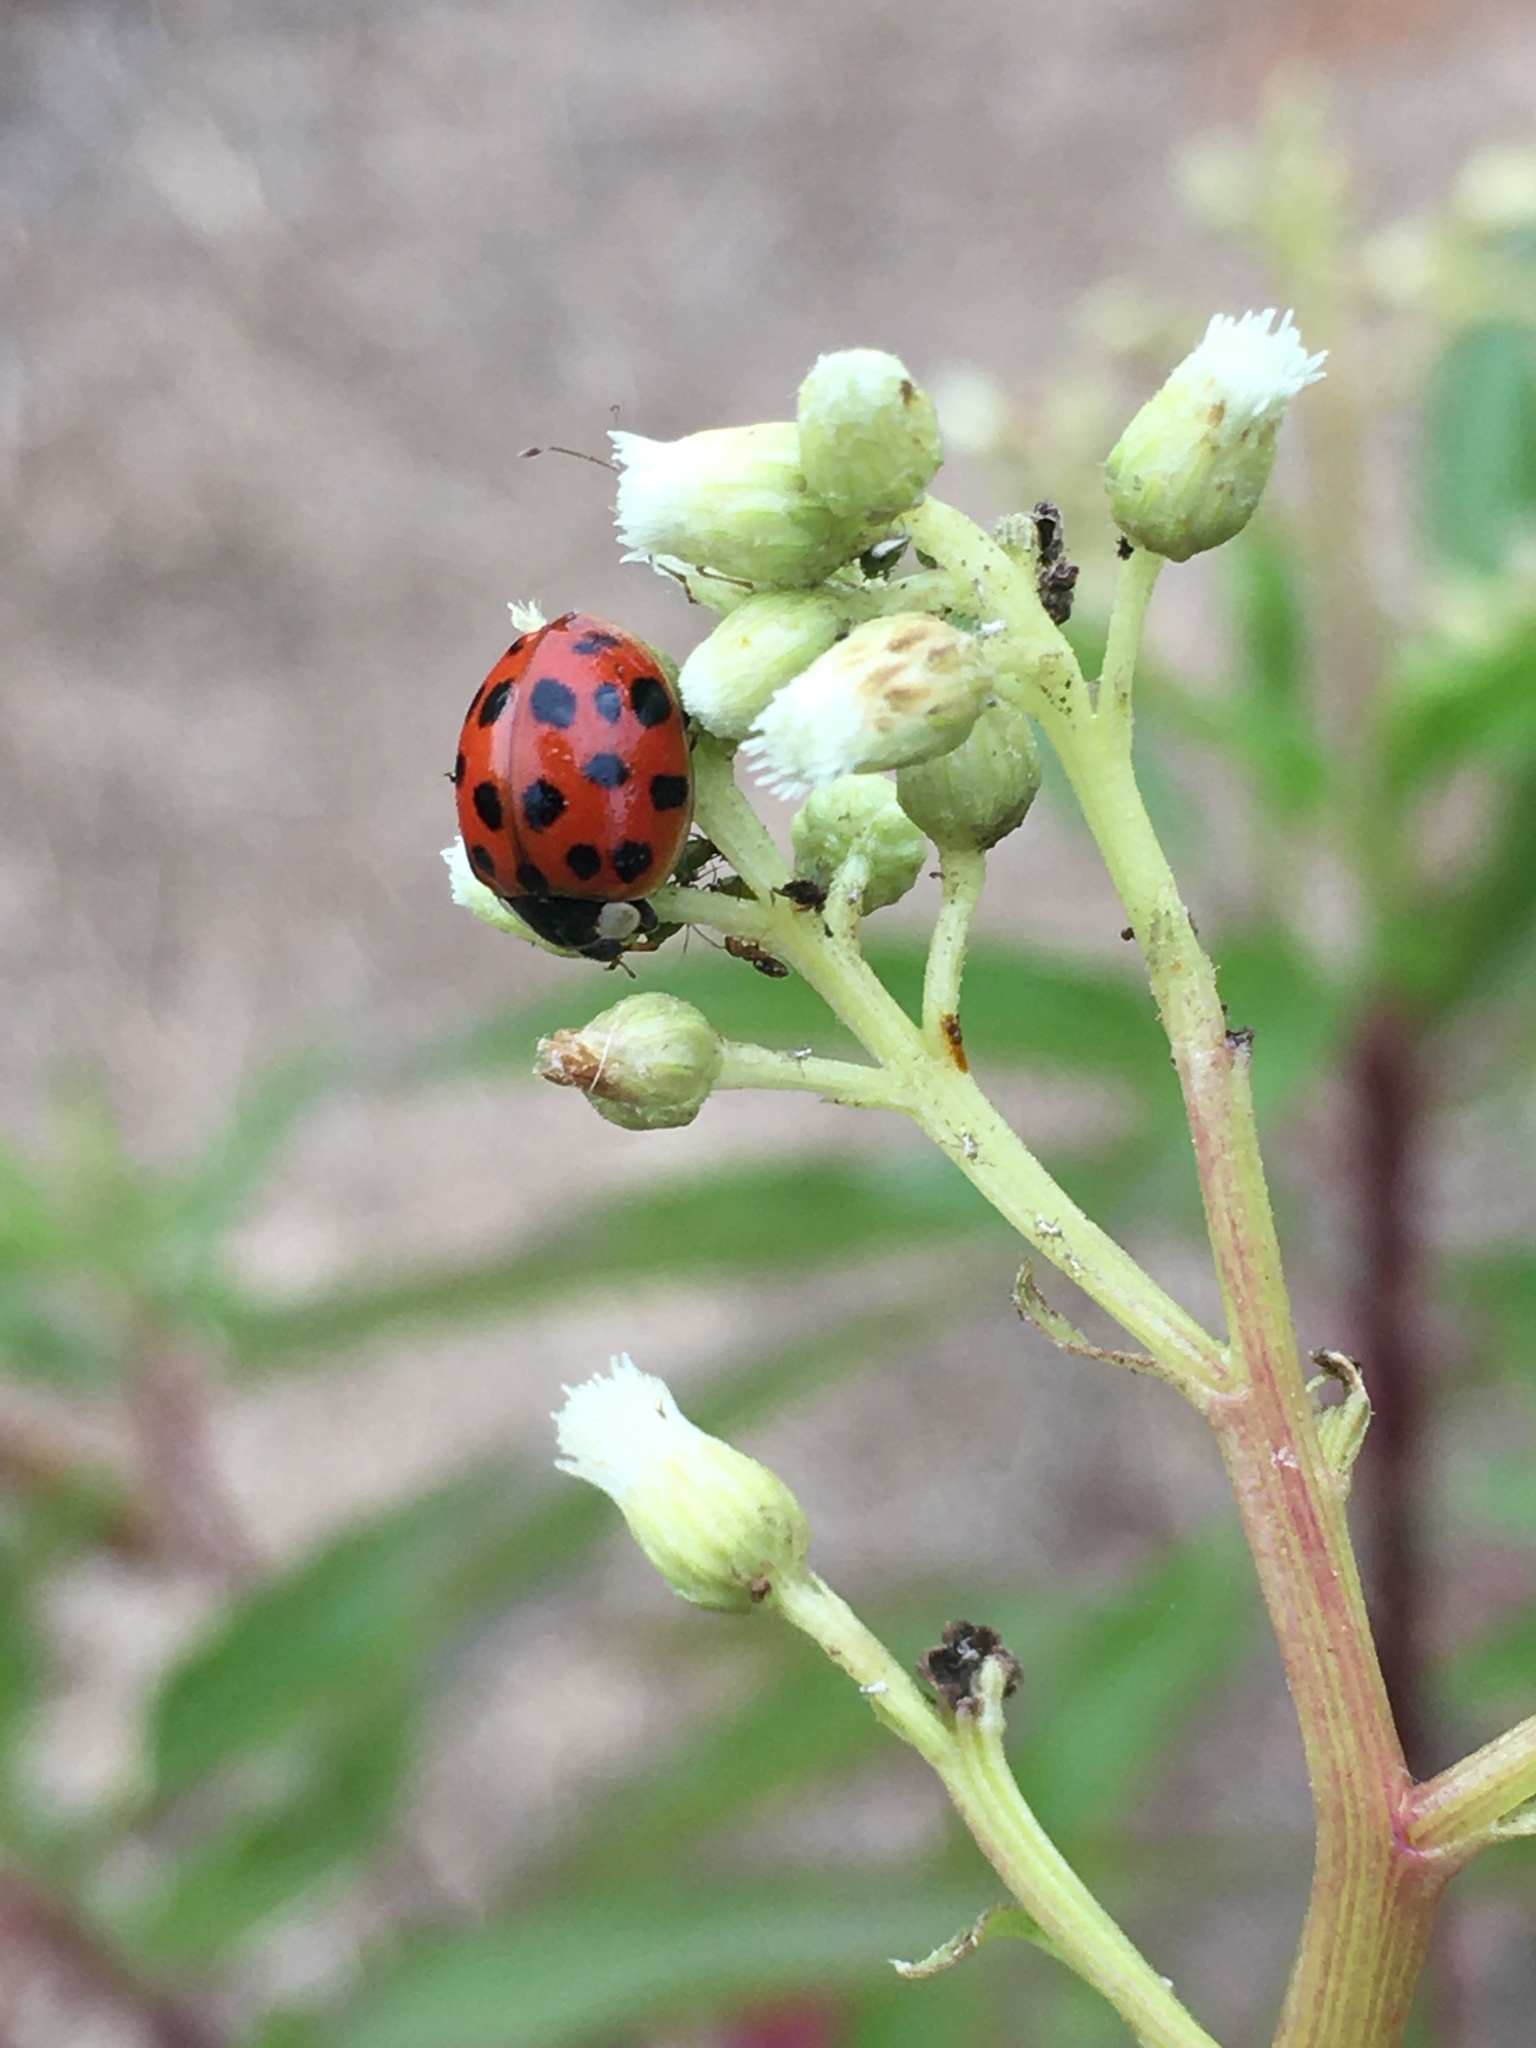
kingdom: Animalia
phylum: Arthropoda
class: Insecta
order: Coleoptera
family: Coccinellidae
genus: Harmonia
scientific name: Harmonia axyridis
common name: Harlequin ladybird
